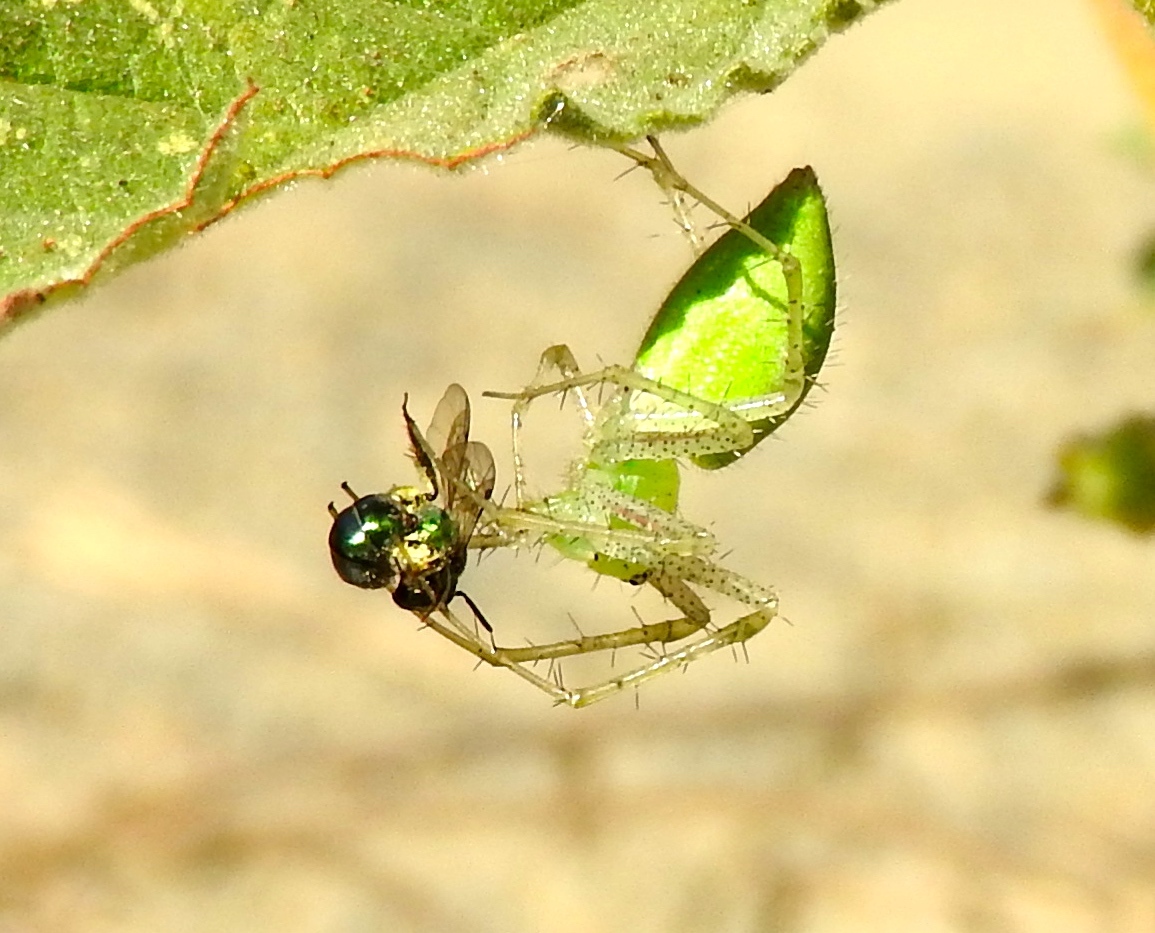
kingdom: Animalia
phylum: Arthropoda
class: Arachnida
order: Araneae
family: Oxyopidae
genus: Peucetia
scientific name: Peucetia longipalpis
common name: Lynx spiders
